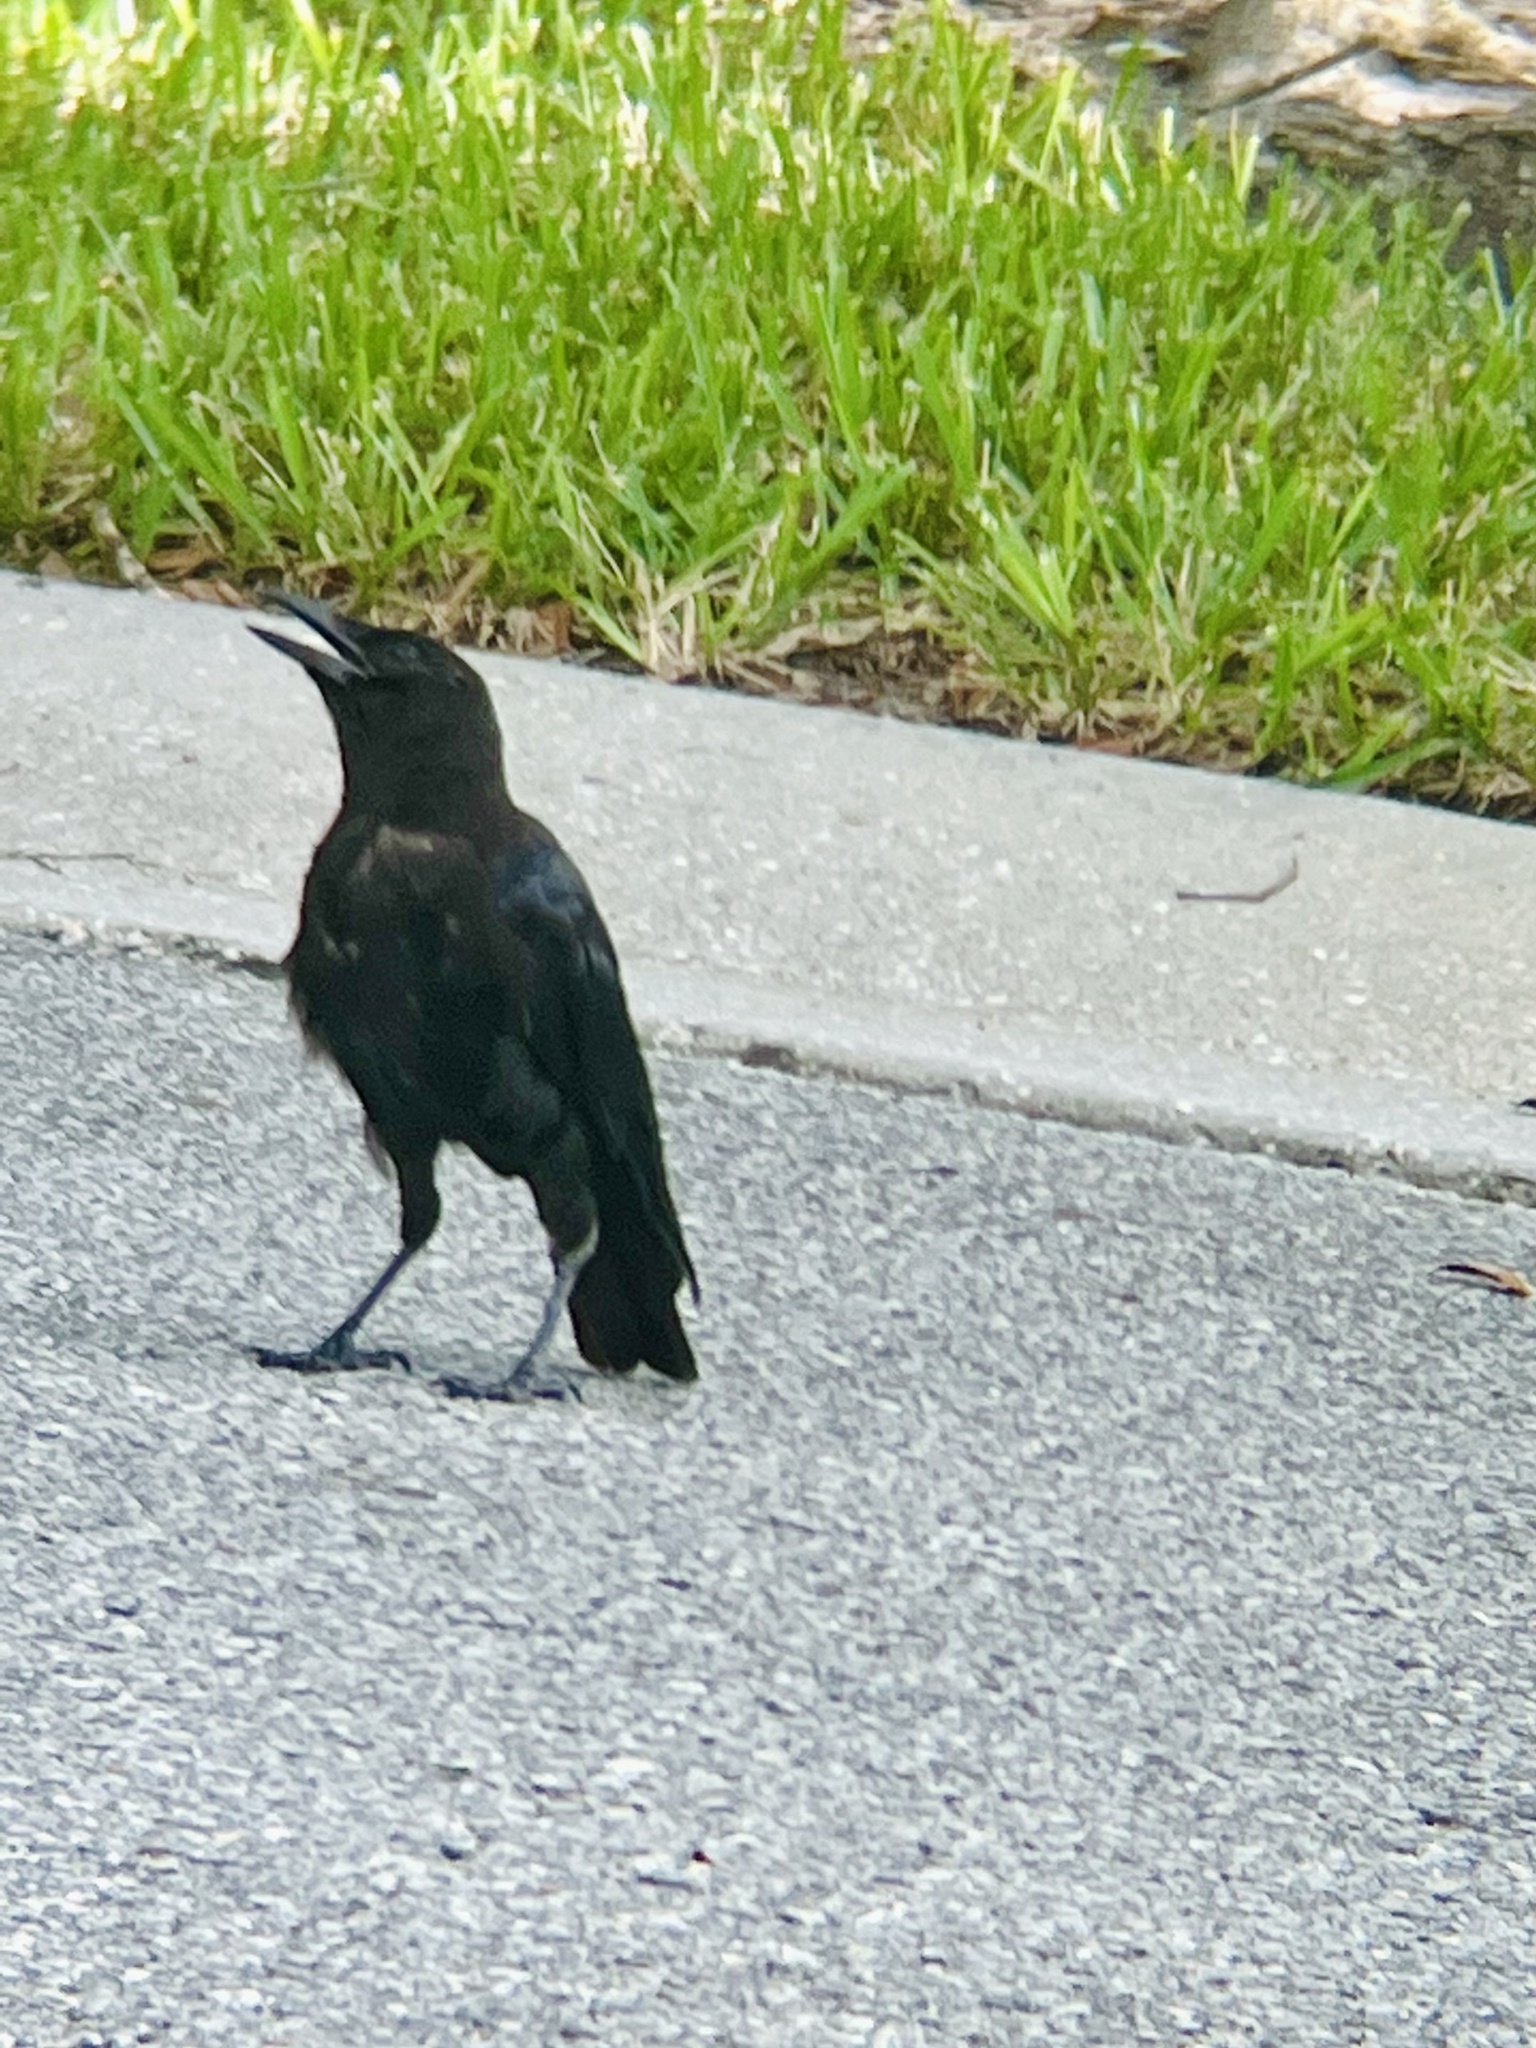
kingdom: Animalia
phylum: Chordata
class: Aves
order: Passeriformes
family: Corvidae
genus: Corvus
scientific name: Corvus brachyrhynchos
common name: American crow
